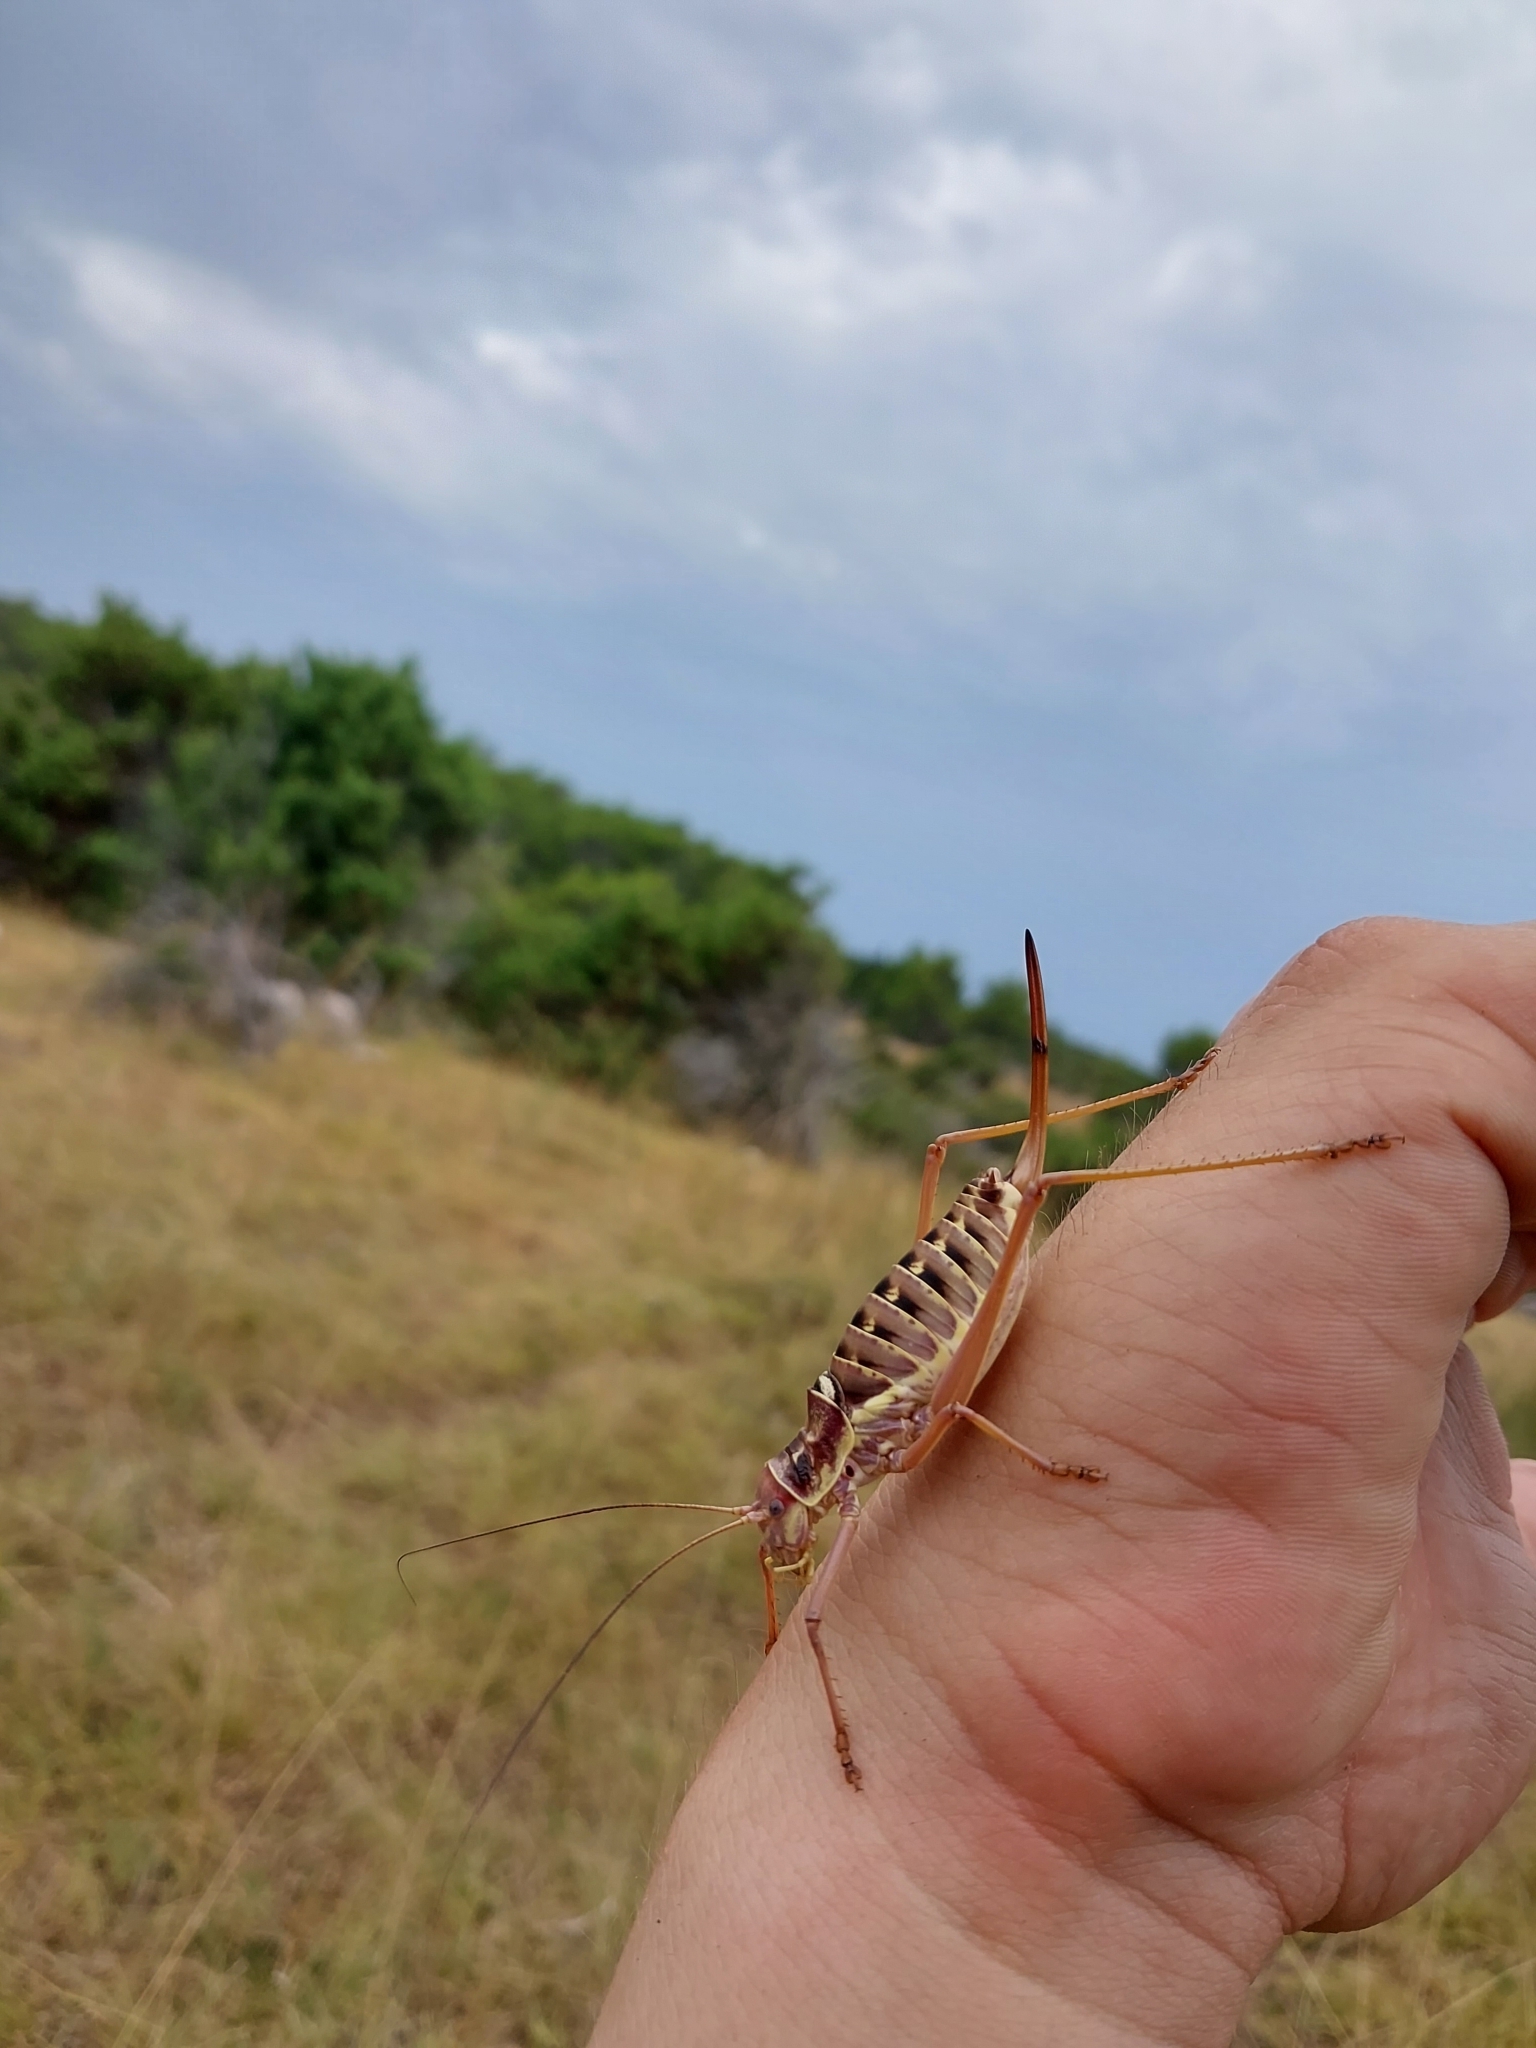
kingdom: Animalia
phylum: Arthropoda
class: Insecta
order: Orthoptera
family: Tettigoniidae
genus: Dinarippiger
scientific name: Dinarippiger discoidalis
